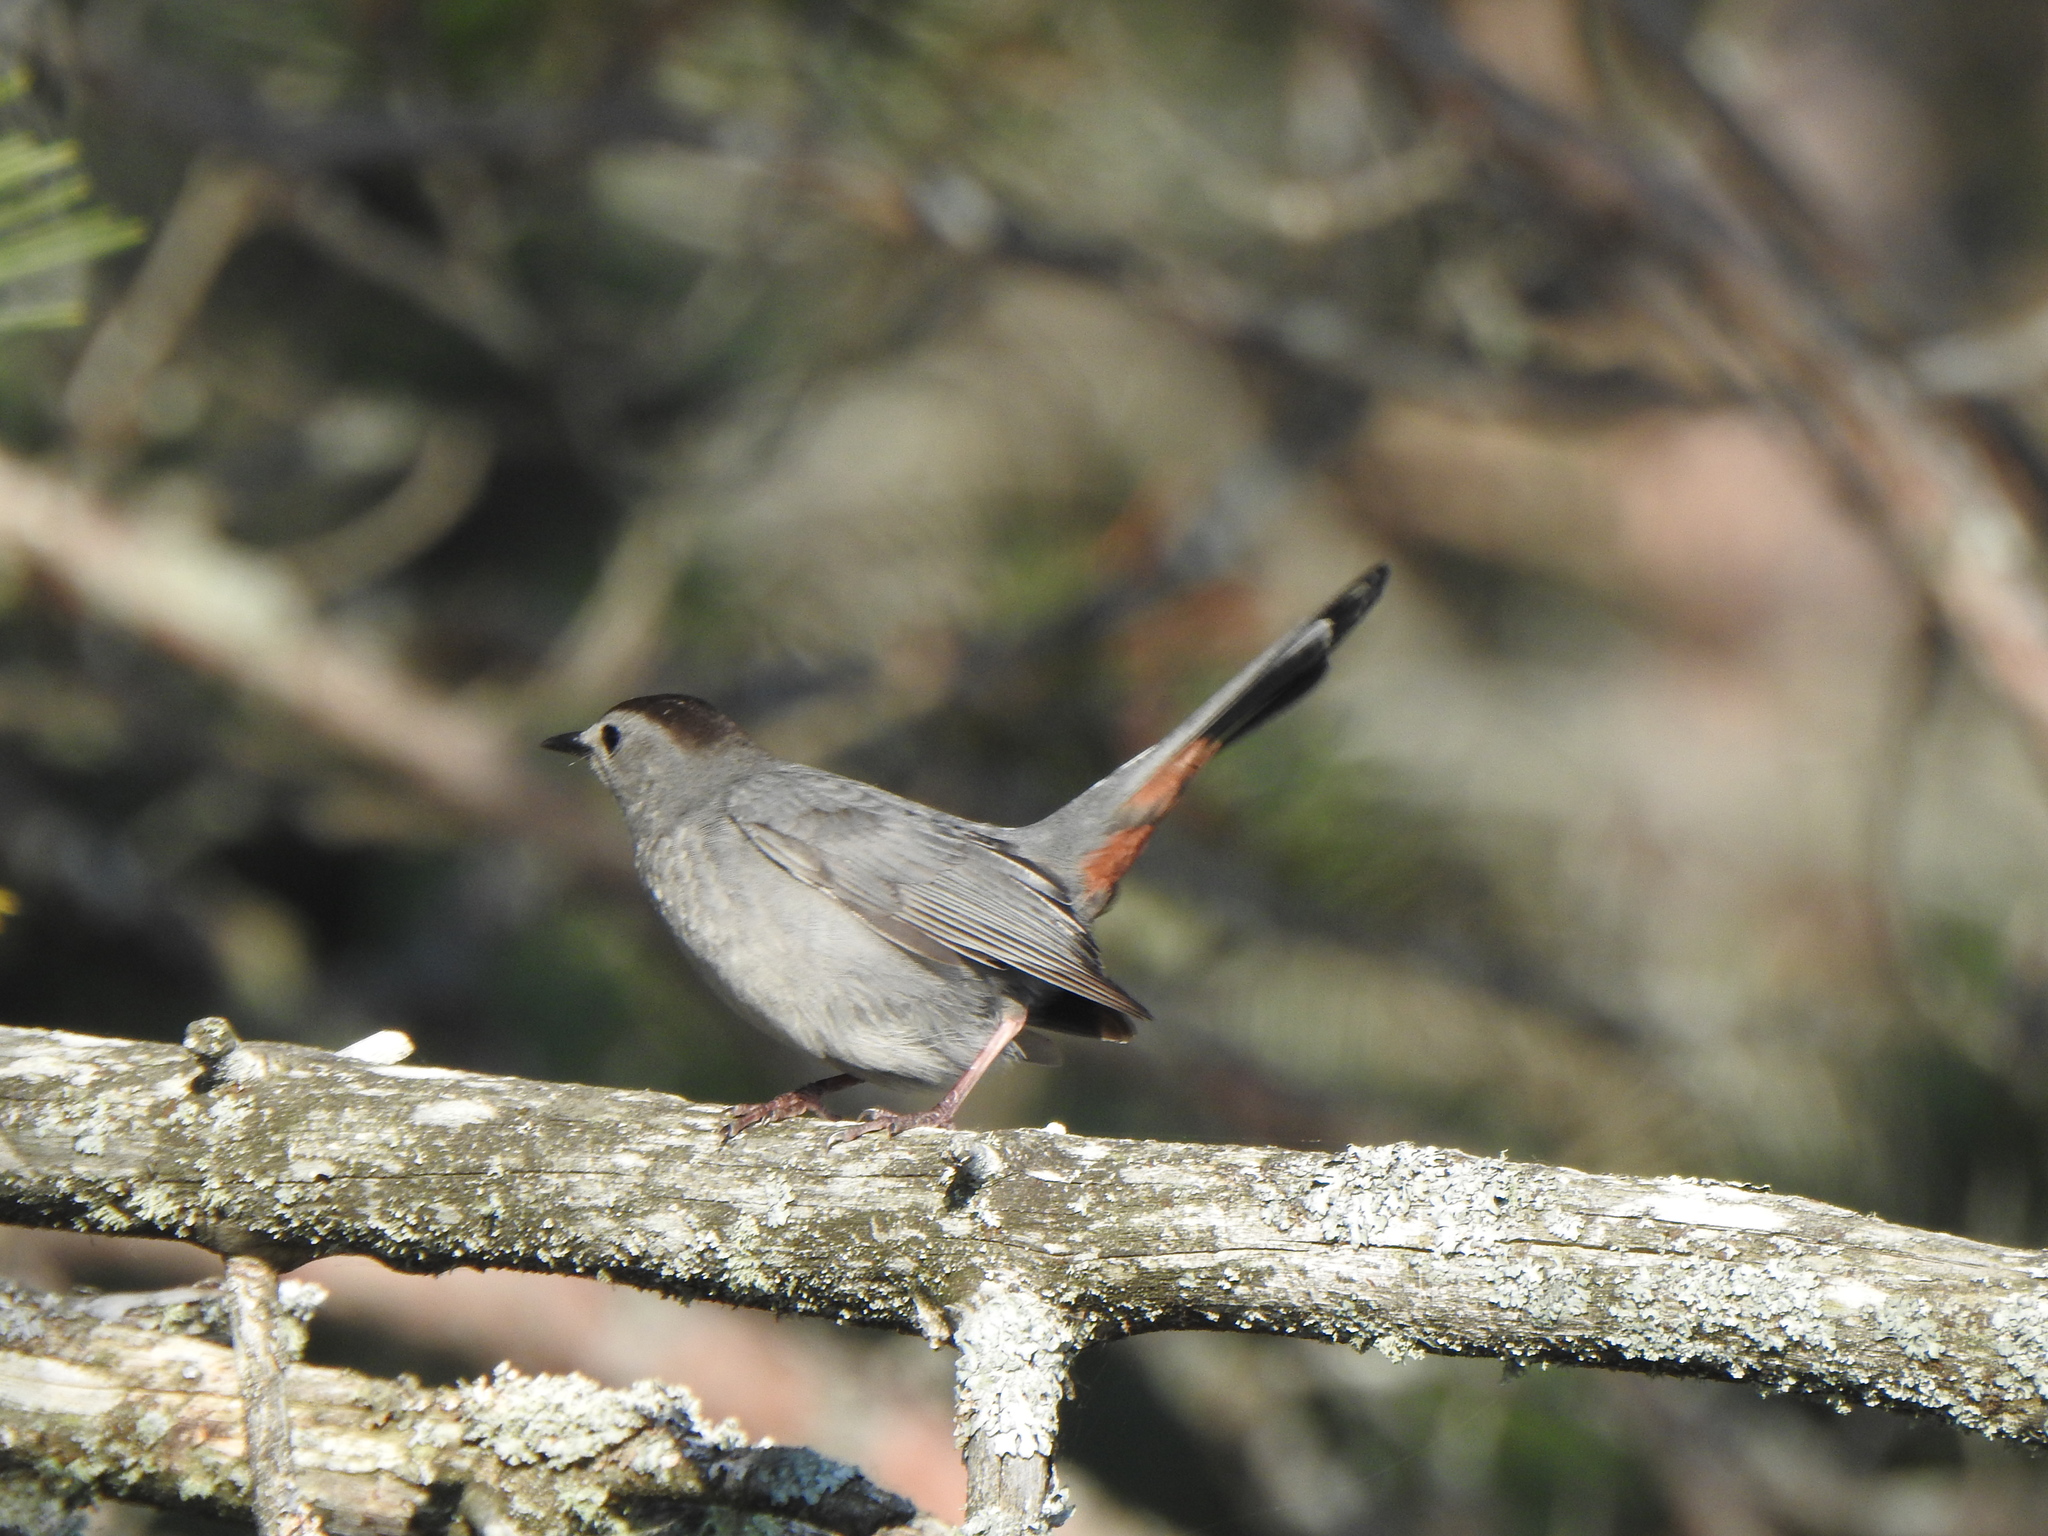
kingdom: Animalia
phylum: Chordata
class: Aves
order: Passeriformes
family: Mimidae
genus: Dumetella
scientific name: Dumetella carolinensis
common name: Gray catbird
